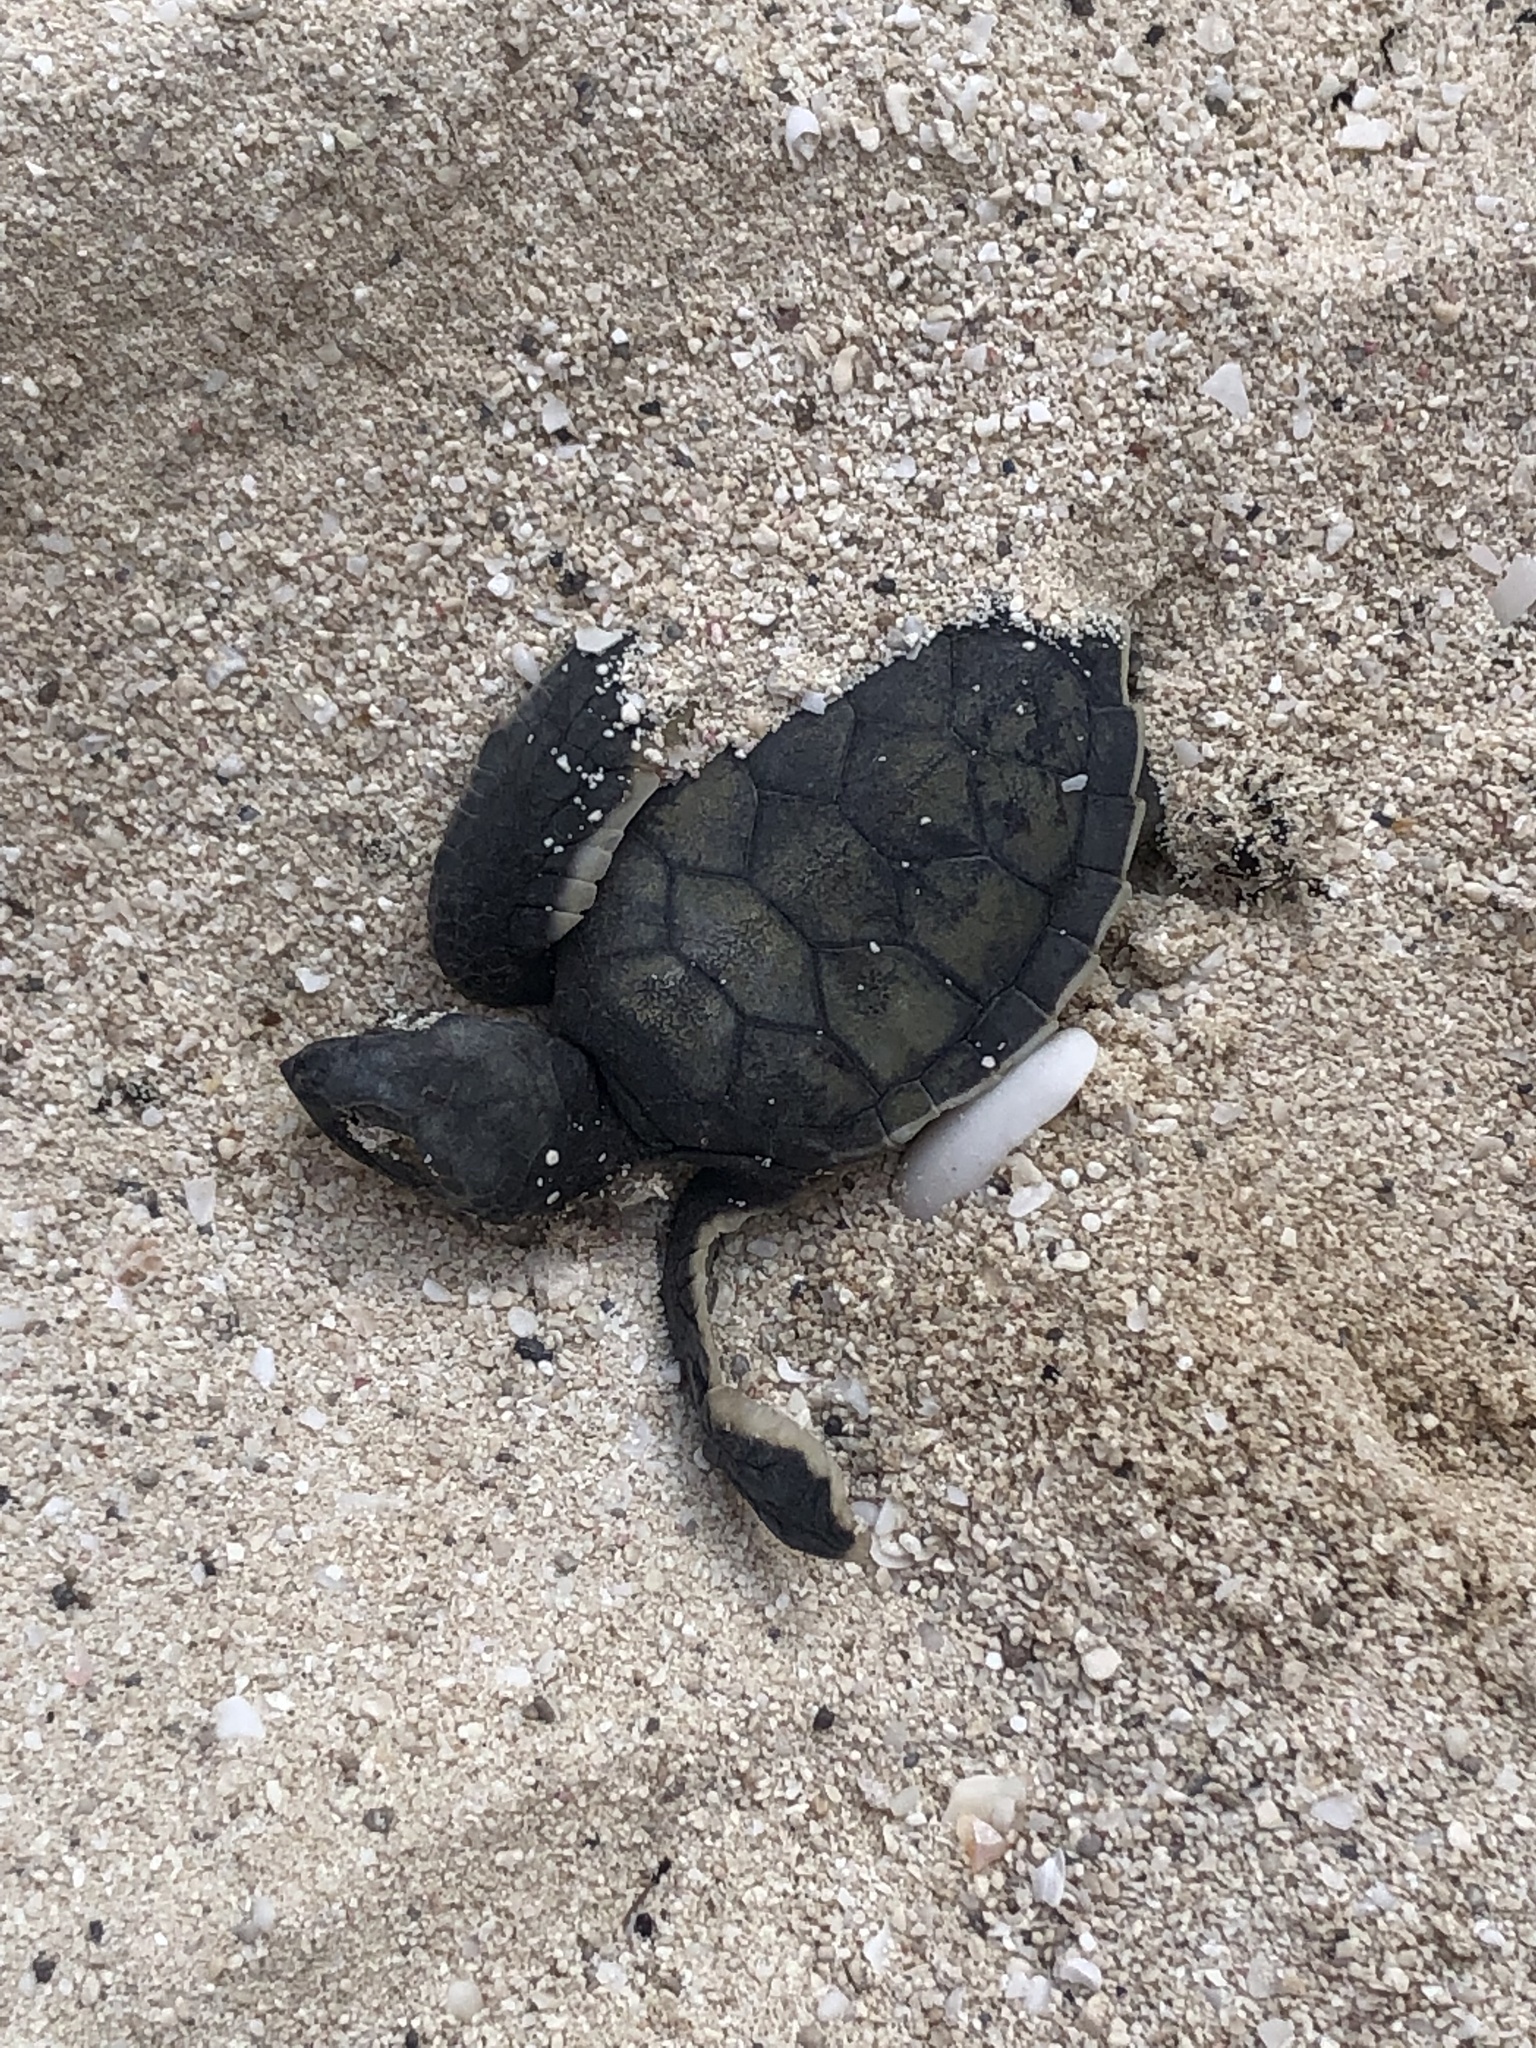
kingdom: Animalia
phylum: Chordata
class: Testudines
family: Cheloniidae
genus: Chelonia
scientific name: Chelonia mydas
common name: Green turtle
